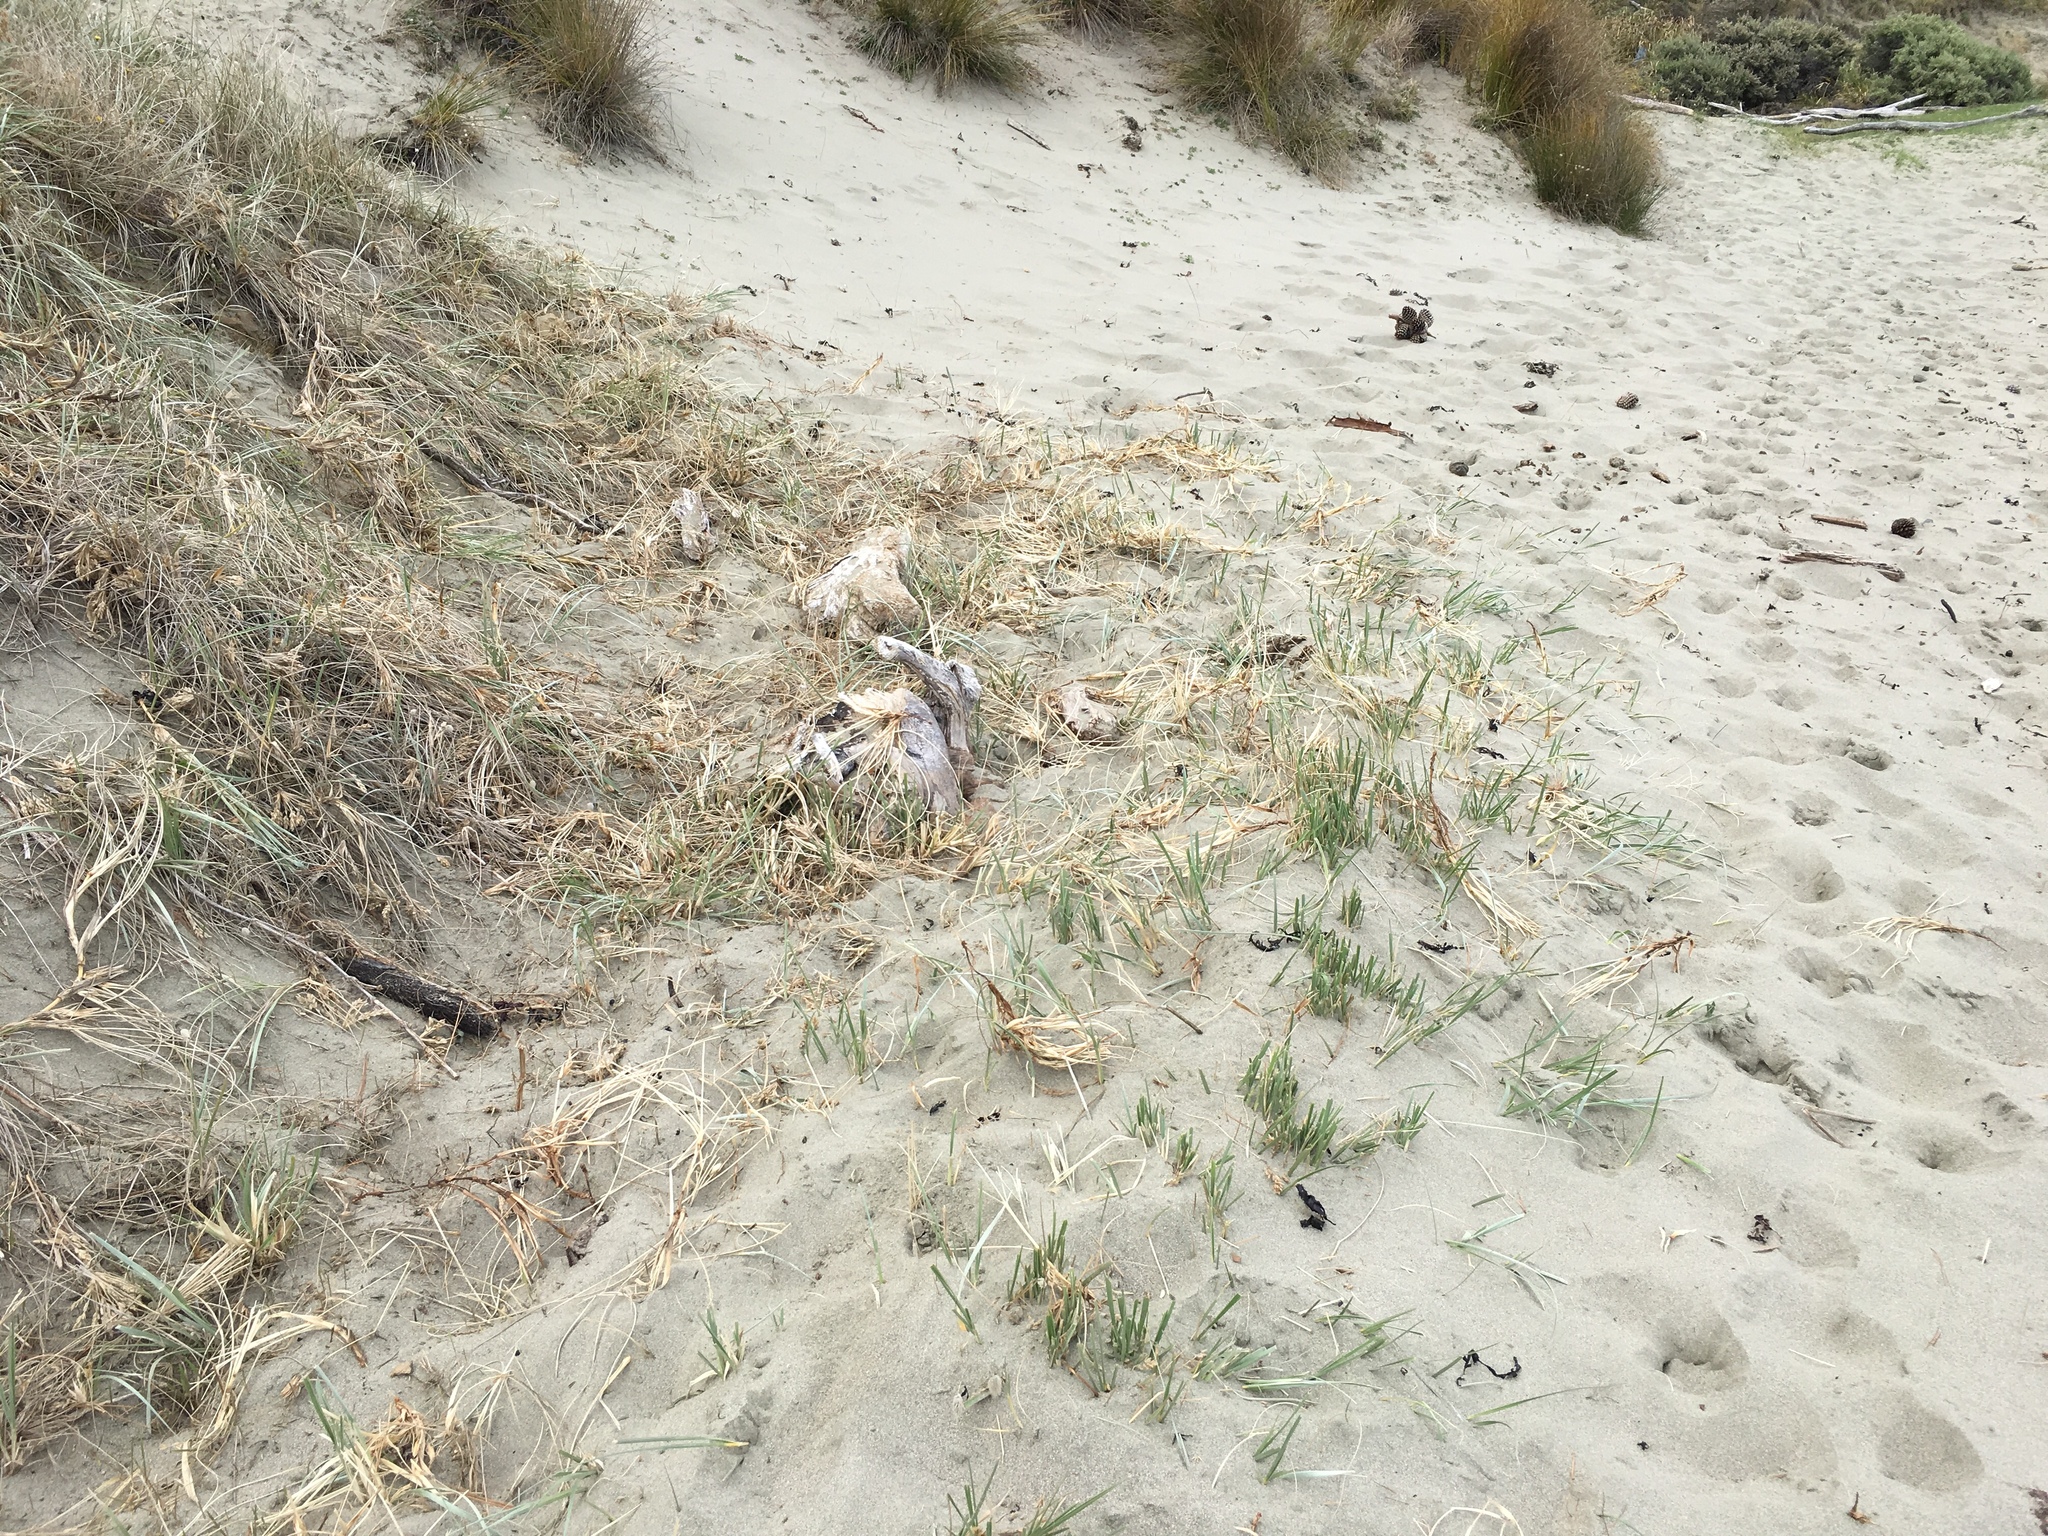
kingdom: Plantae
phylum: Tracheophyta
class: Liliopsida
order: Poales
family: Poaceae
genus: Spinifex
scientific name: Spinifex sericeus
